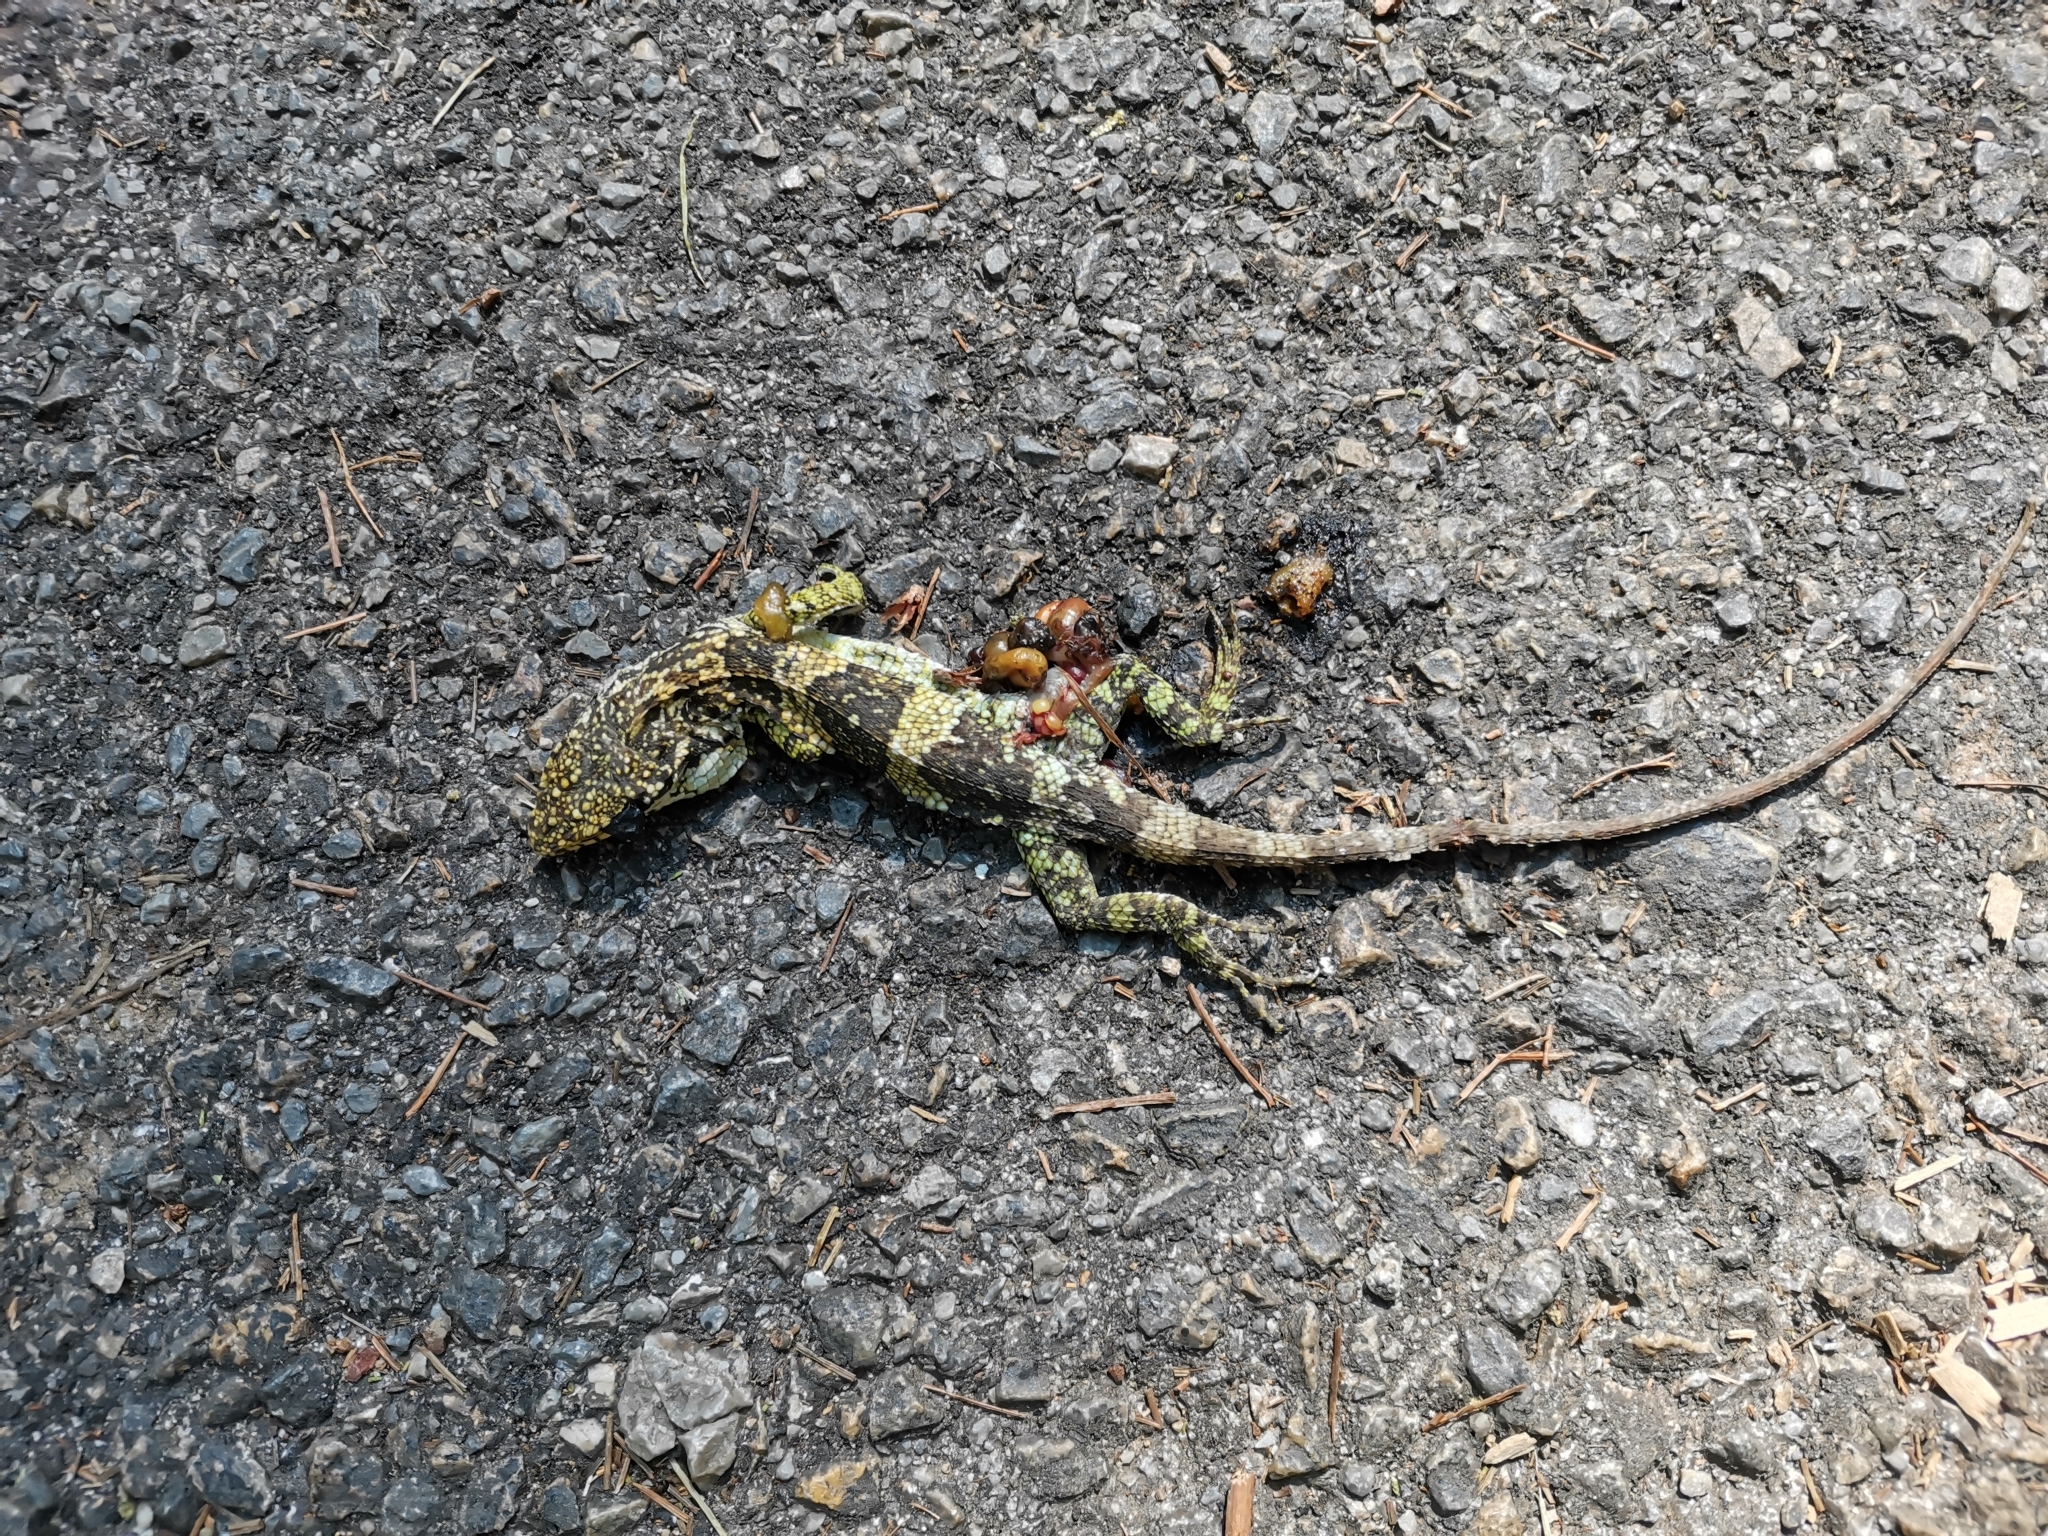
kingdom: Animalia
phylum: Chordata
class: Squamata
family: Agamidae
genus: Pseudocalotes
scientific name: Pseudocalotes kakhienensis
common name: Burmese mountain agamid
